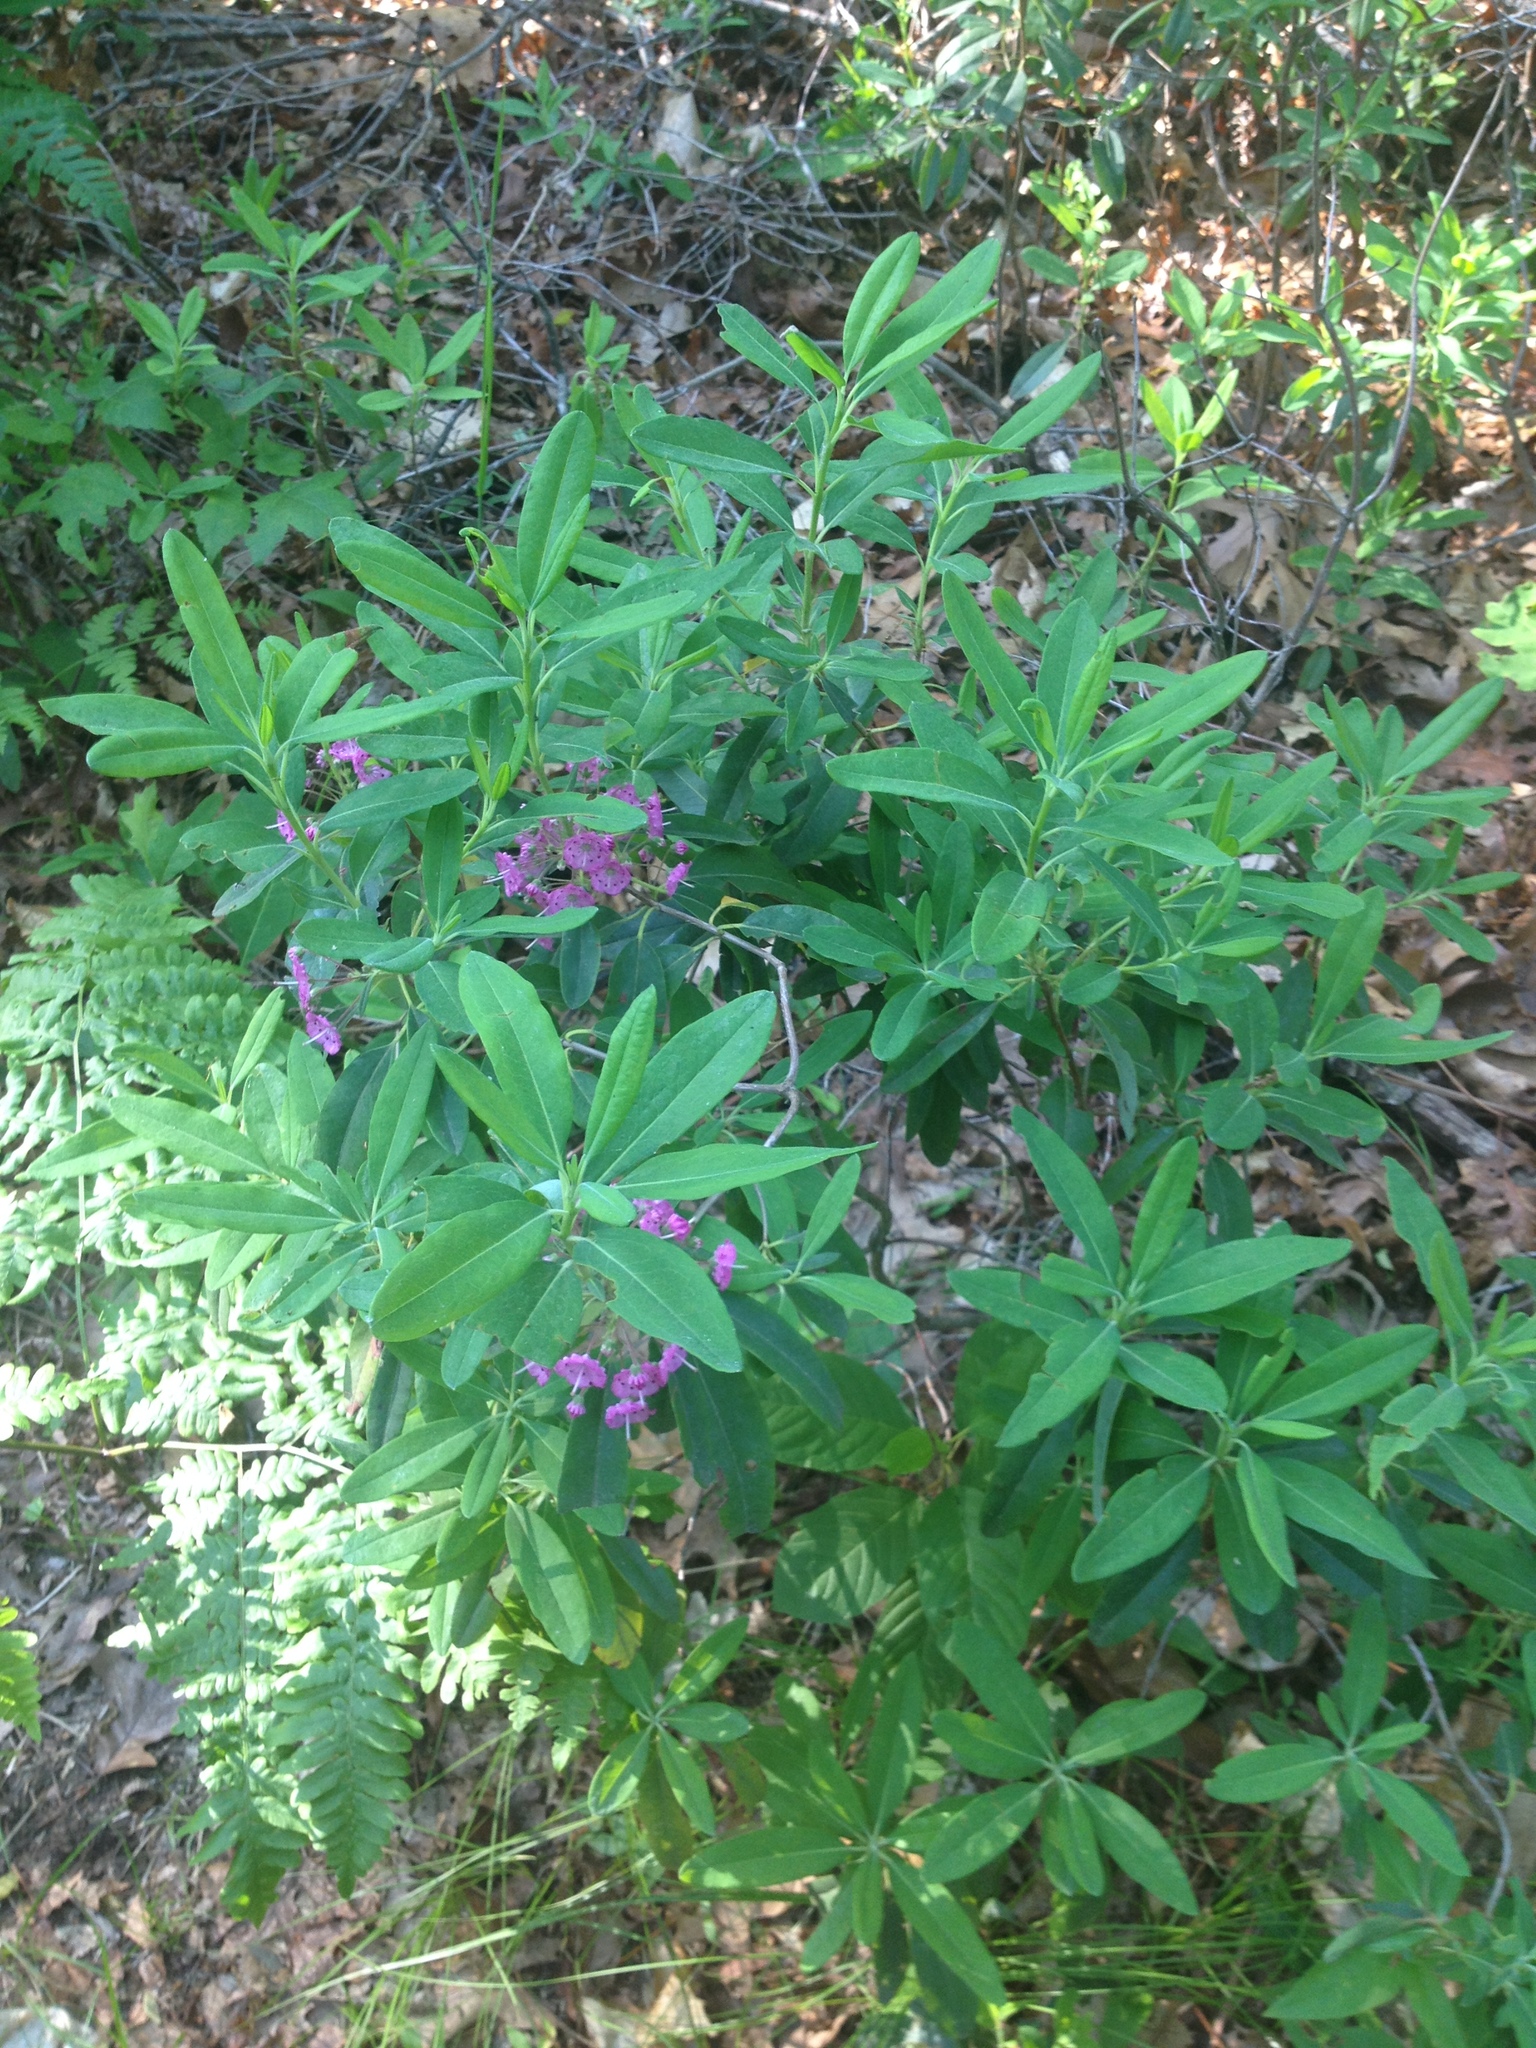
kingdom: Plantae
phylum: Tracheophyta
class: Magnoliopsida
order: Ericales
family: Ericaceae
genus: Kalmia
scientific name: Kalmia angustifolia
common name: Sheep-laurel
